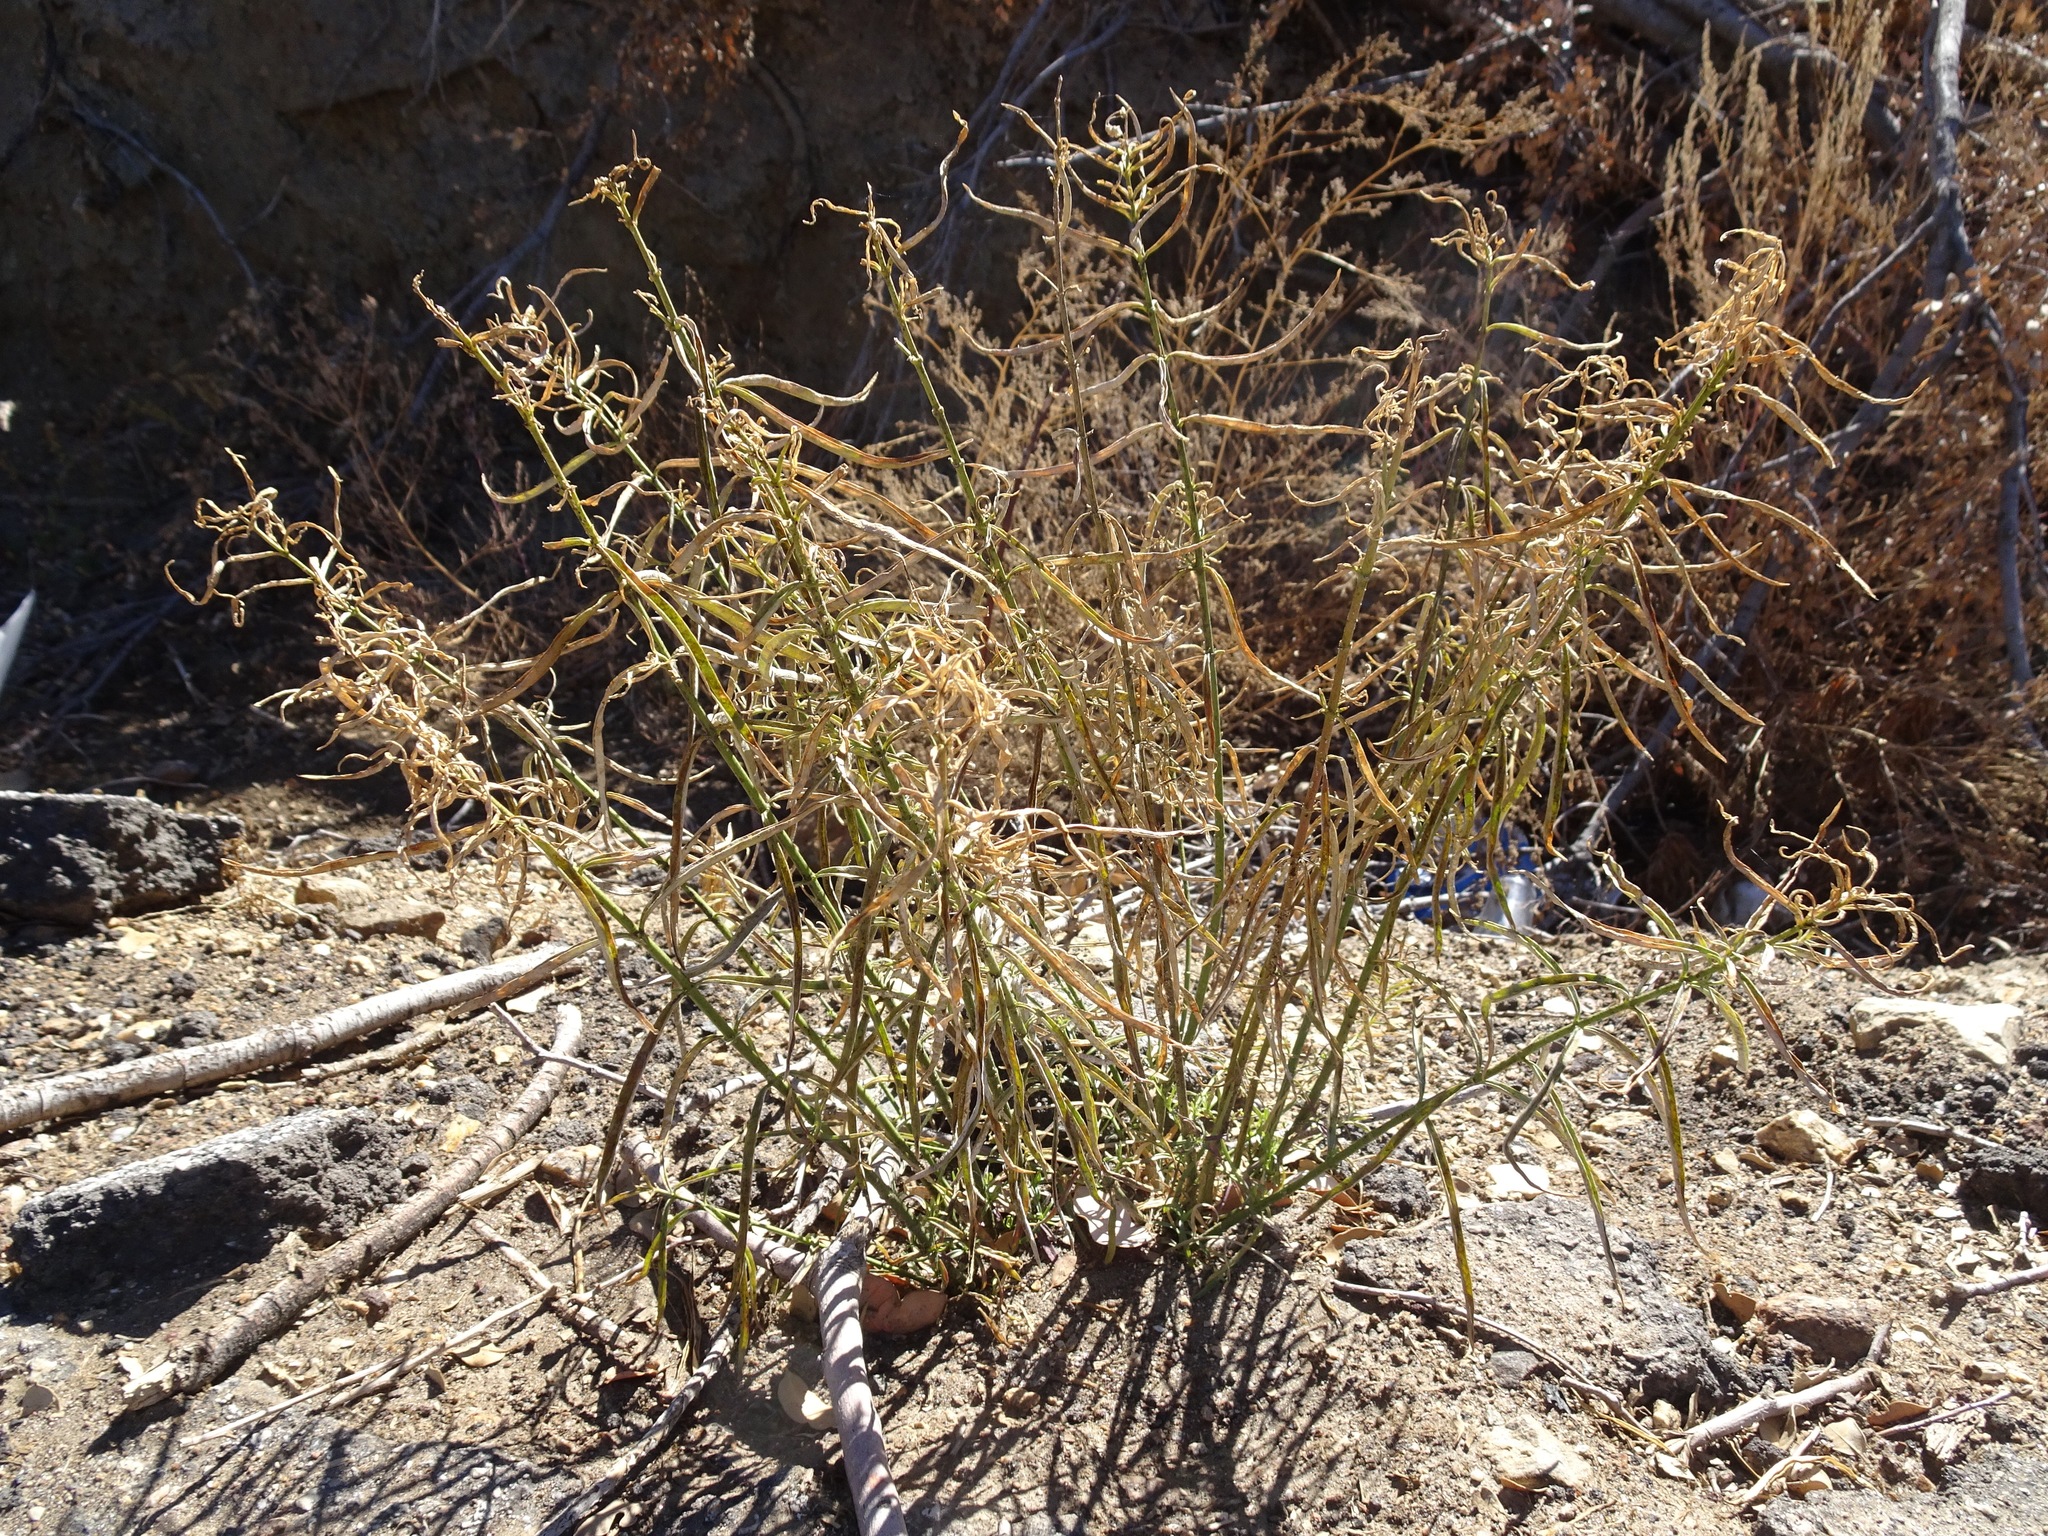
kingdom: Plantae
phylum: Tracheophyta
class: Magnoliopsida
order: Gentianales
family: Apocynaceae
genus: Asclepias
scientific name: Asclepias fascicularis
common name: Mexican milkweed
